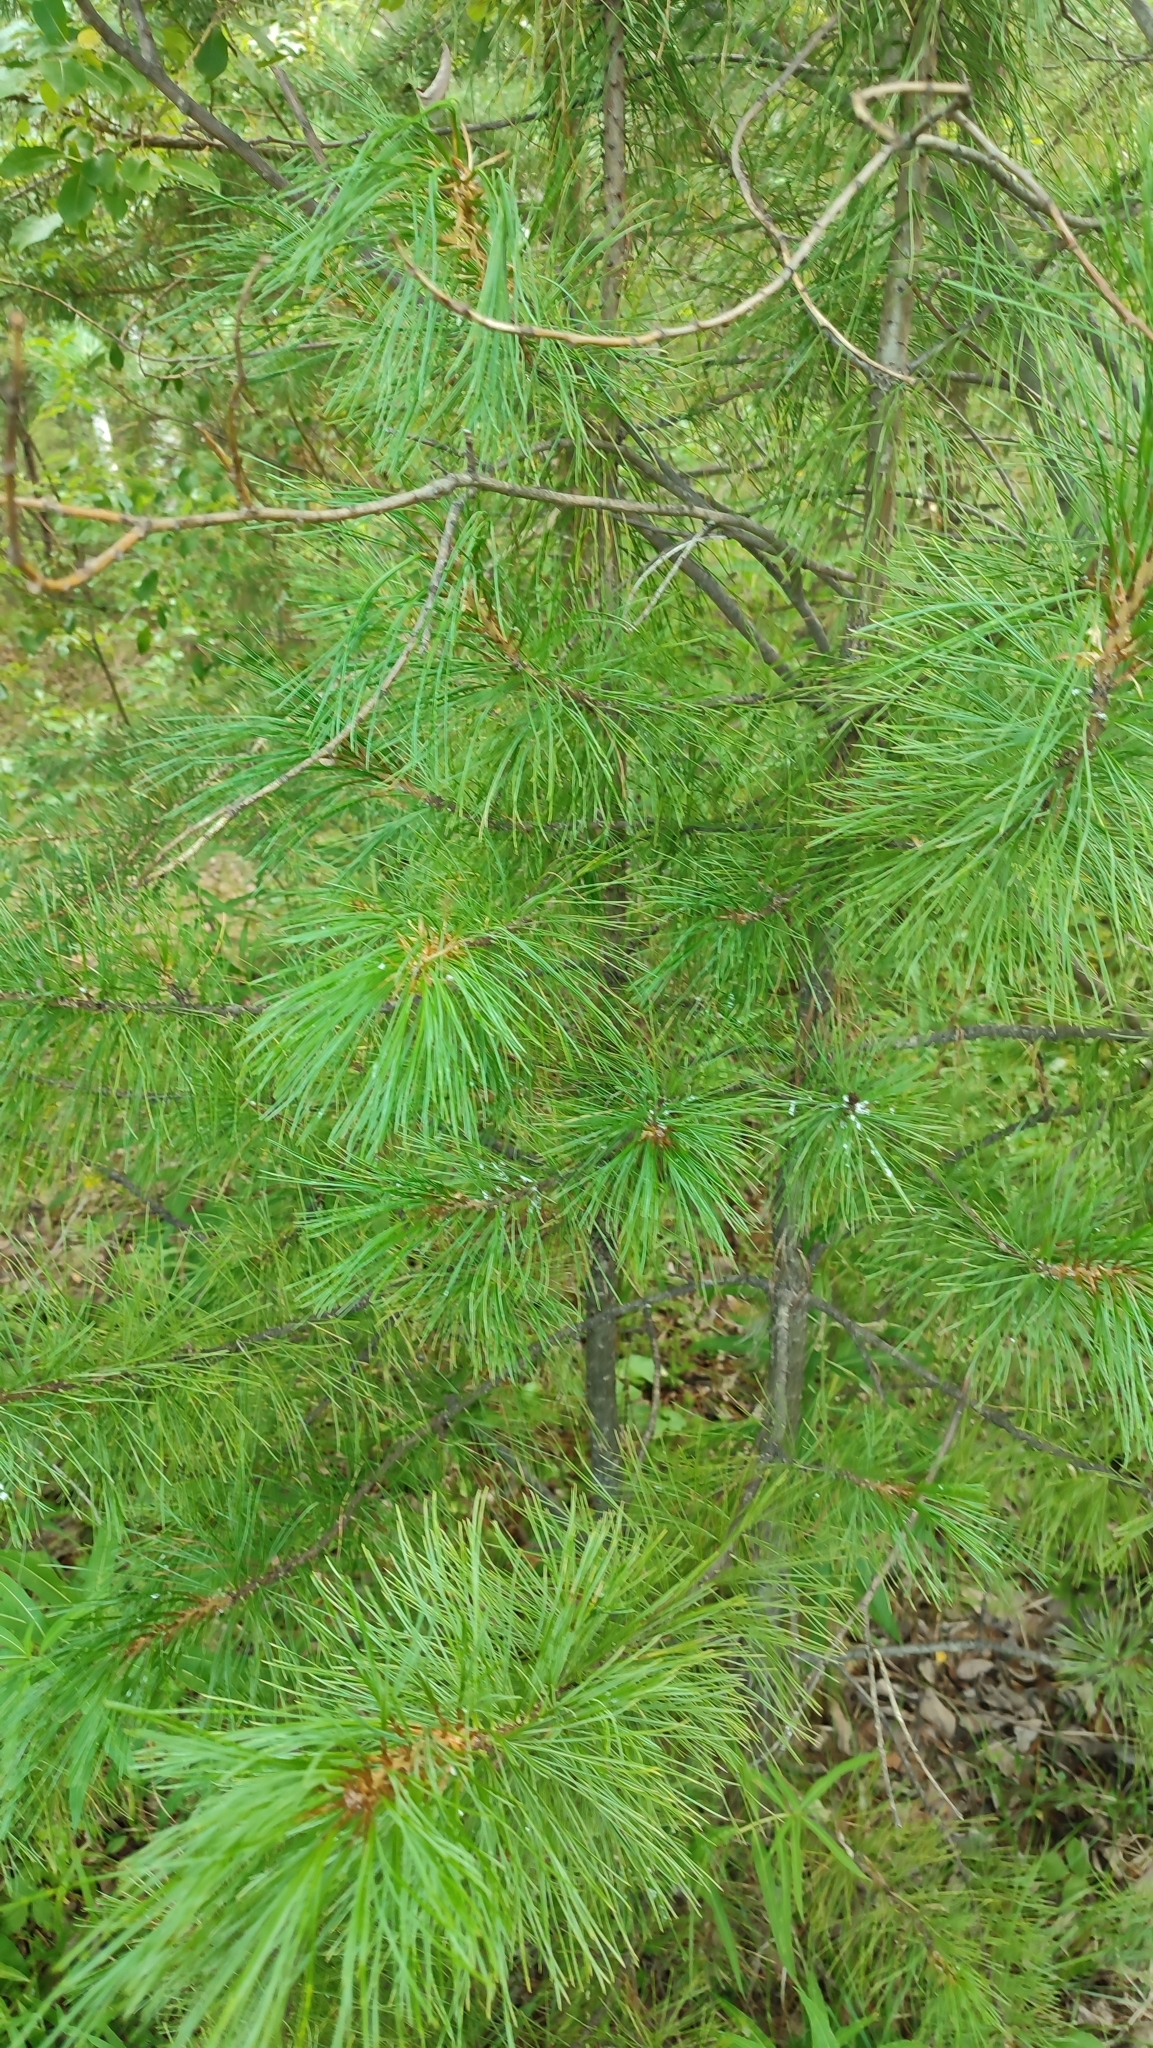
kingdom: Plantae
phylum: Tracheophyta
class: Pinopsida
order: Pinales
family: Pinaceae
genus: Pinus
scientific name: Pinus sibirica
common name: Siberian pine
